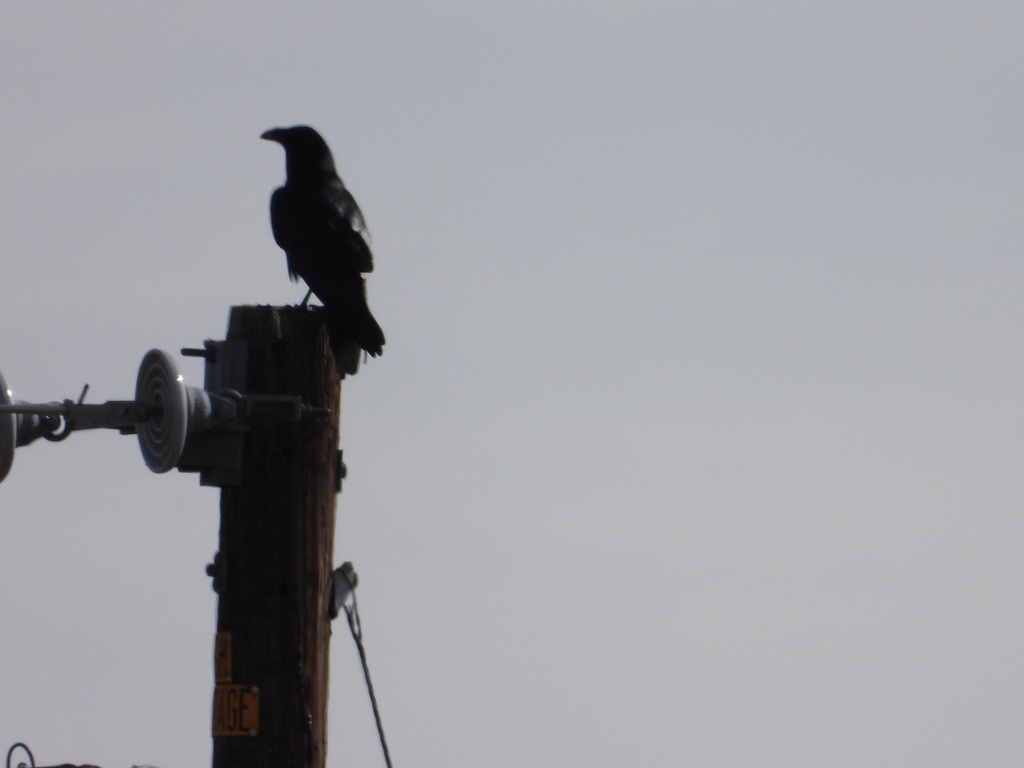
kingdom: Animalia
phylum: Chordata
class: Aves
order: Passeriformes
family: Corvidae
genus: Corvus
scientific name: Corvus corax
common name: Common raven
